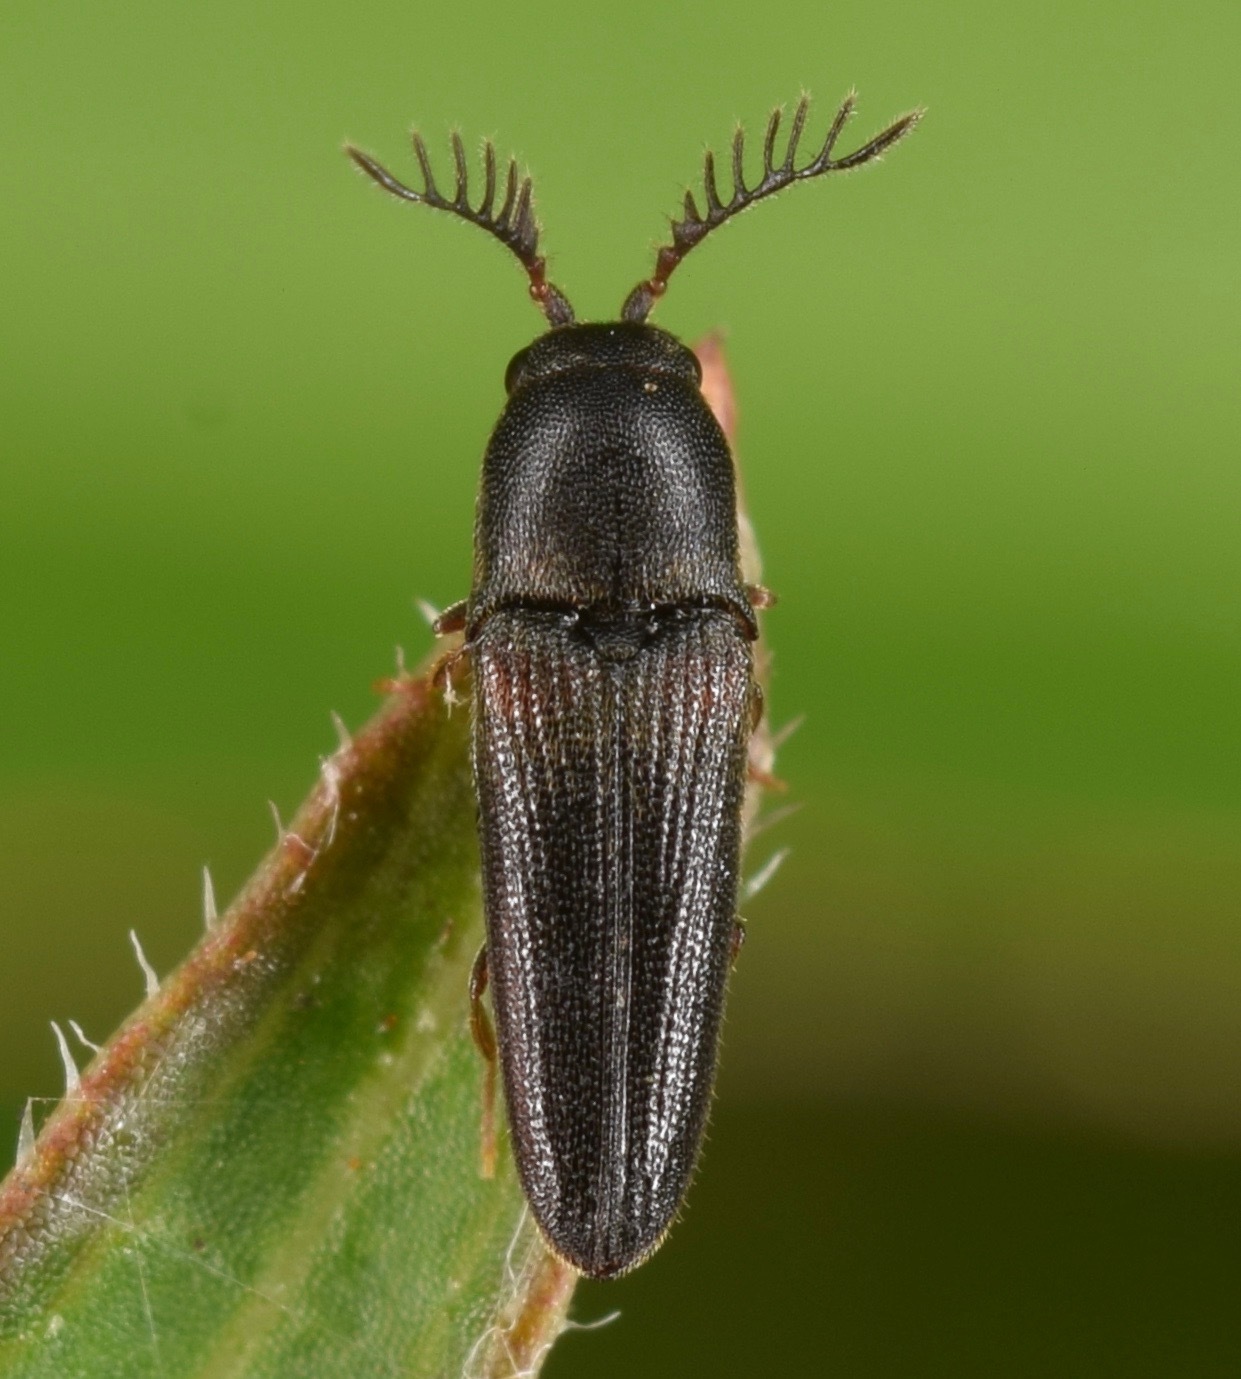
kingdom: Animalia
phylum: Arthropoda
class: Insecta
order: Coleoptera
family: Eucnemidae
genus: Deltometopus
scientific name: Deltometopus amoenicornis
